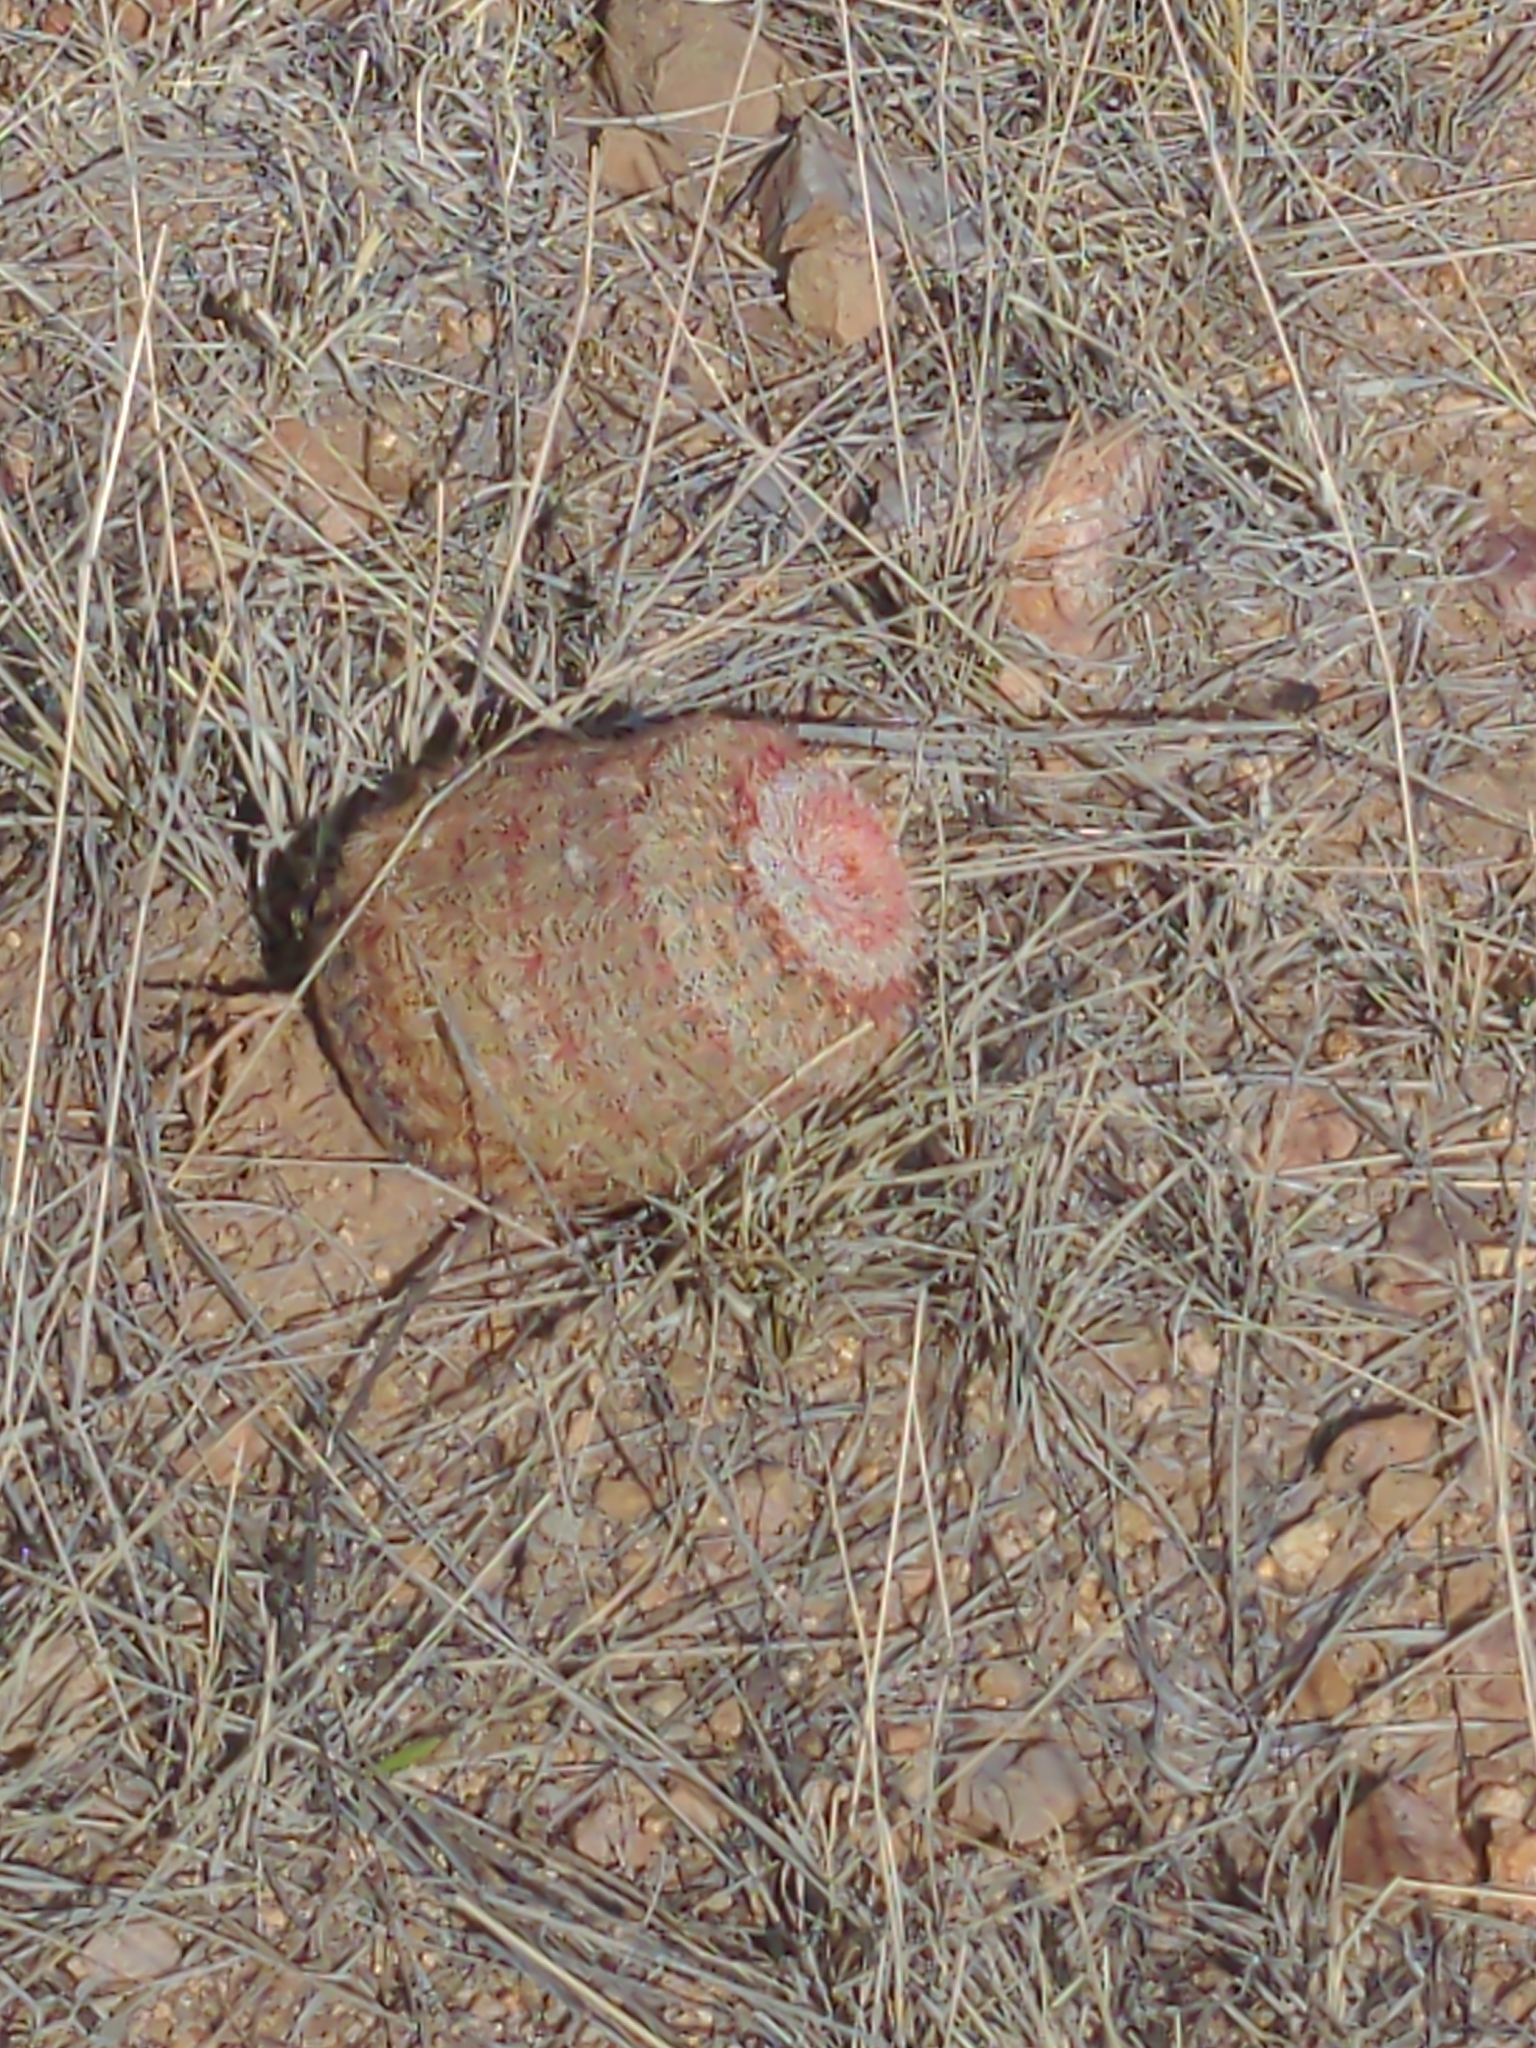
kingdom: Plantae
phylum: Tracheophyta
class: Magnoliopsida
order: Caryophyllales
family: Cactaceae
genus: Echinocereus
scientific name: Echinocereus rigidissimus
